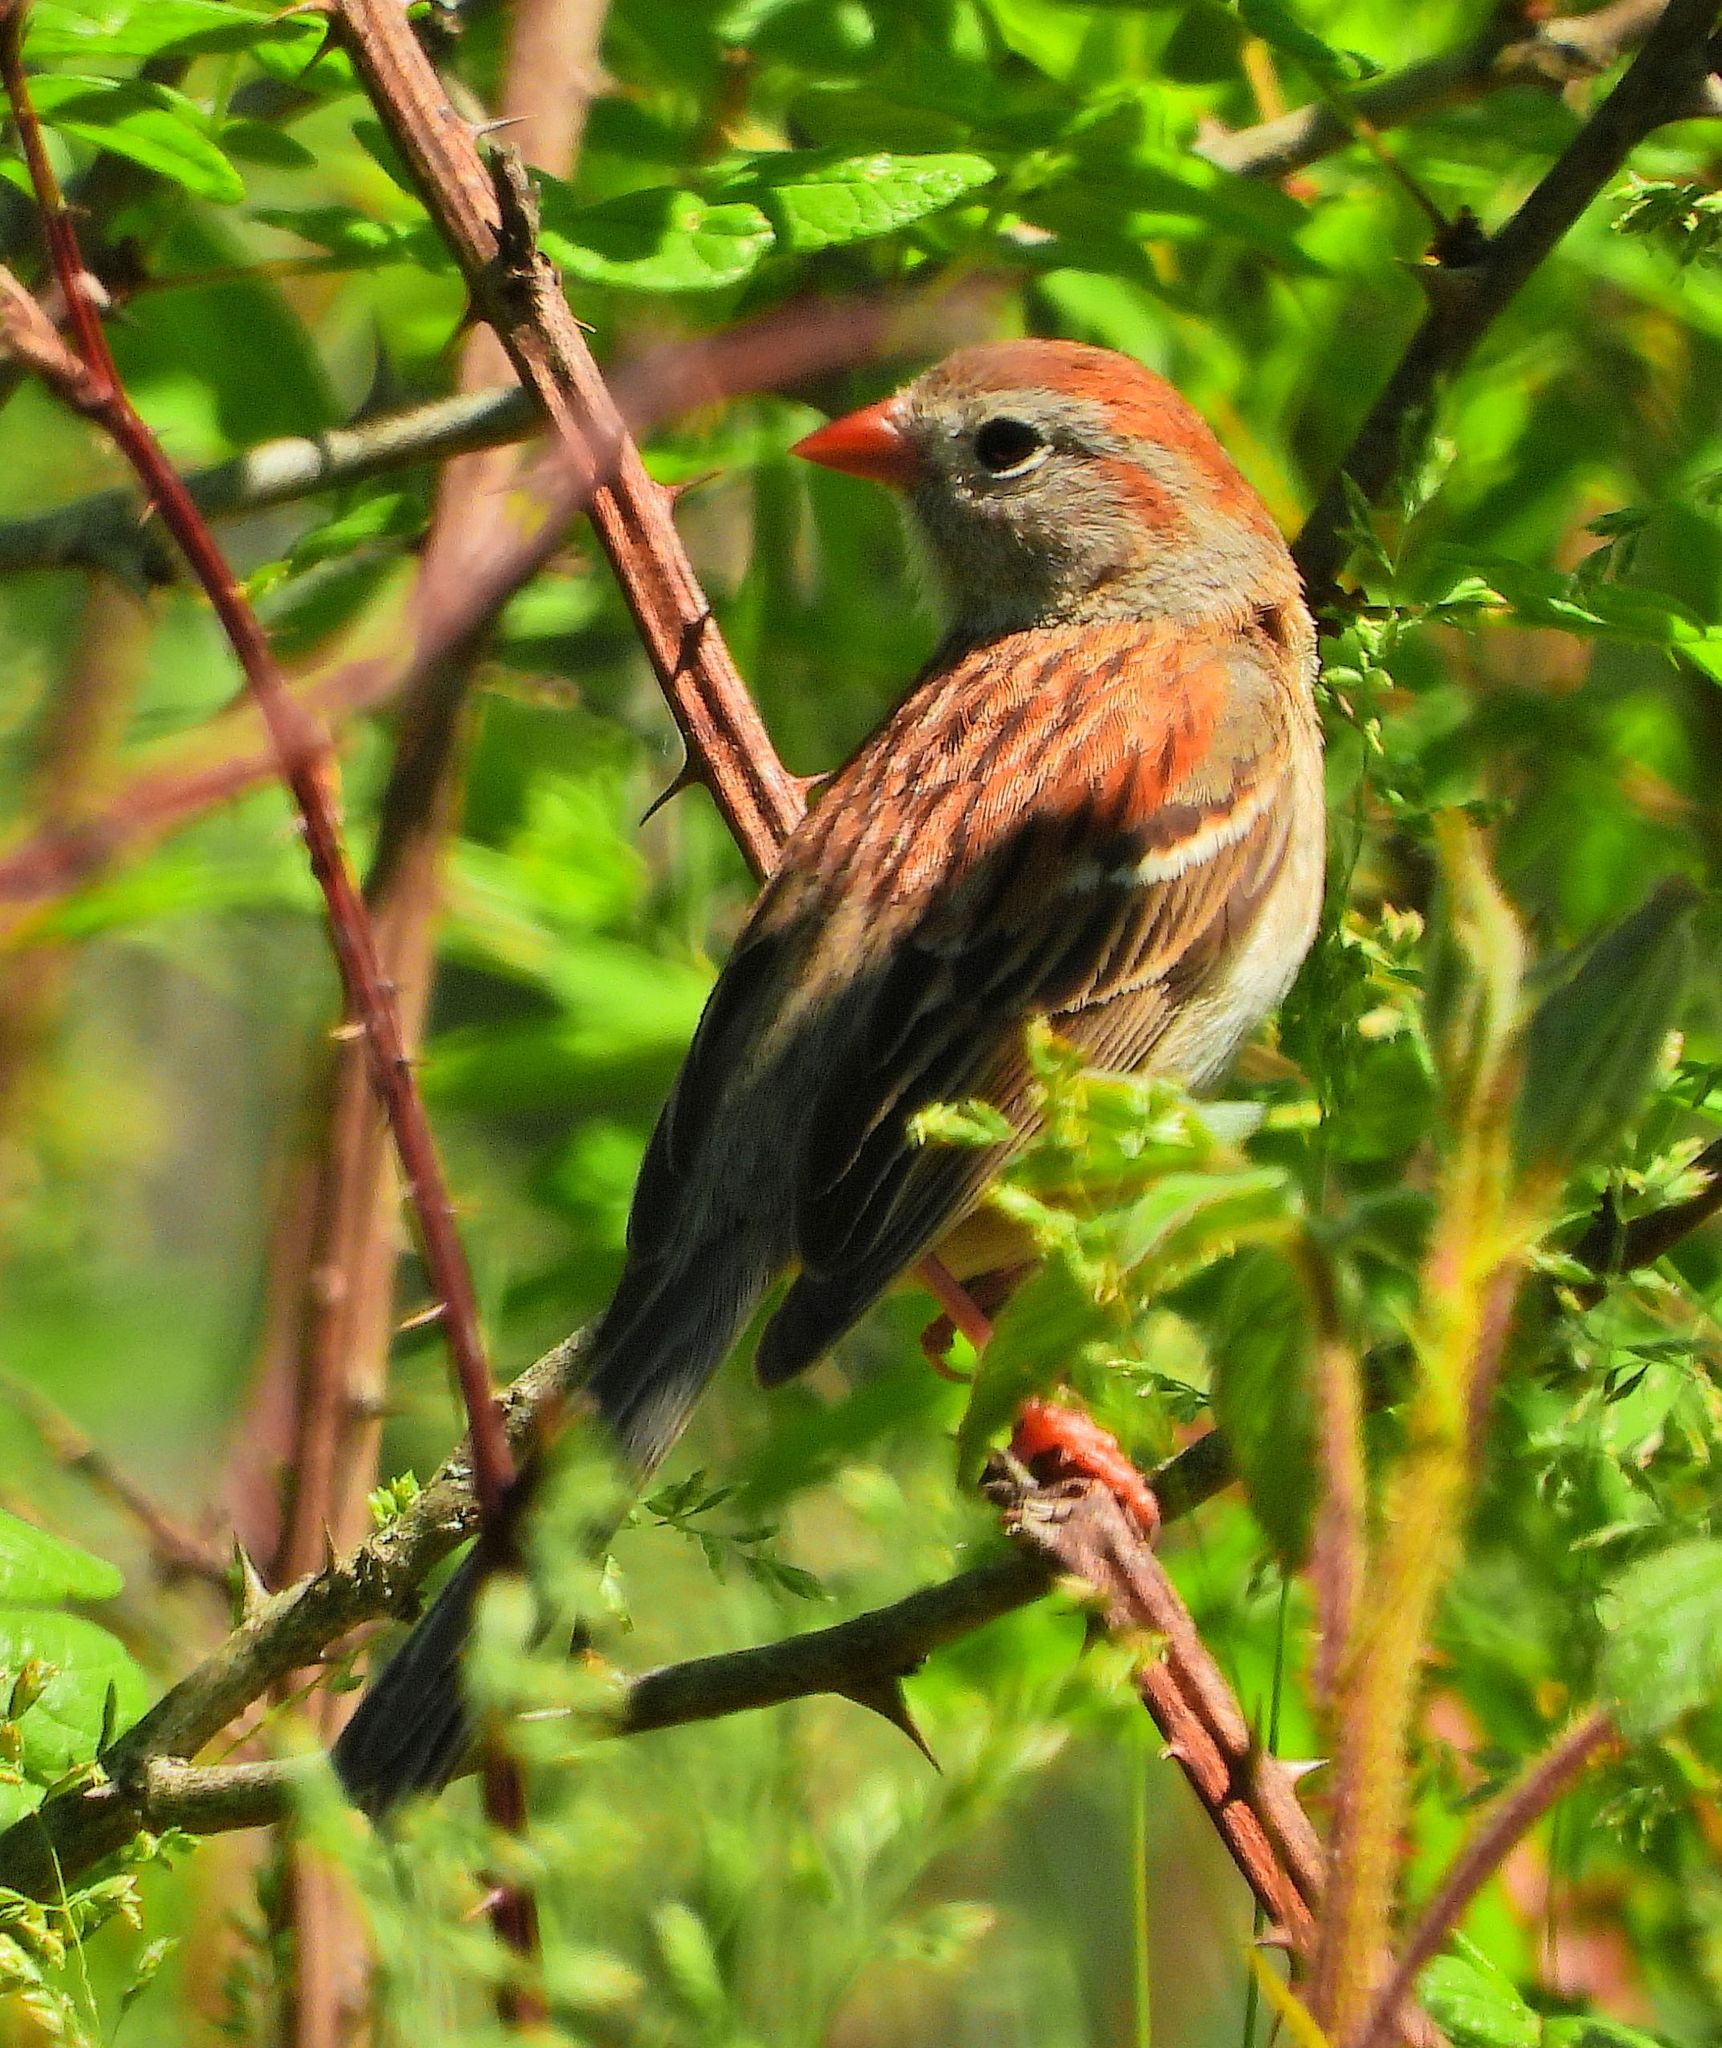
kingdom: Animalia
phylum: Chordata
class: Aves
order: Passeriformes
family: Passerellidae
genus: Spizella
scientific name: Spizella pusilla
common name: Field sparrow
